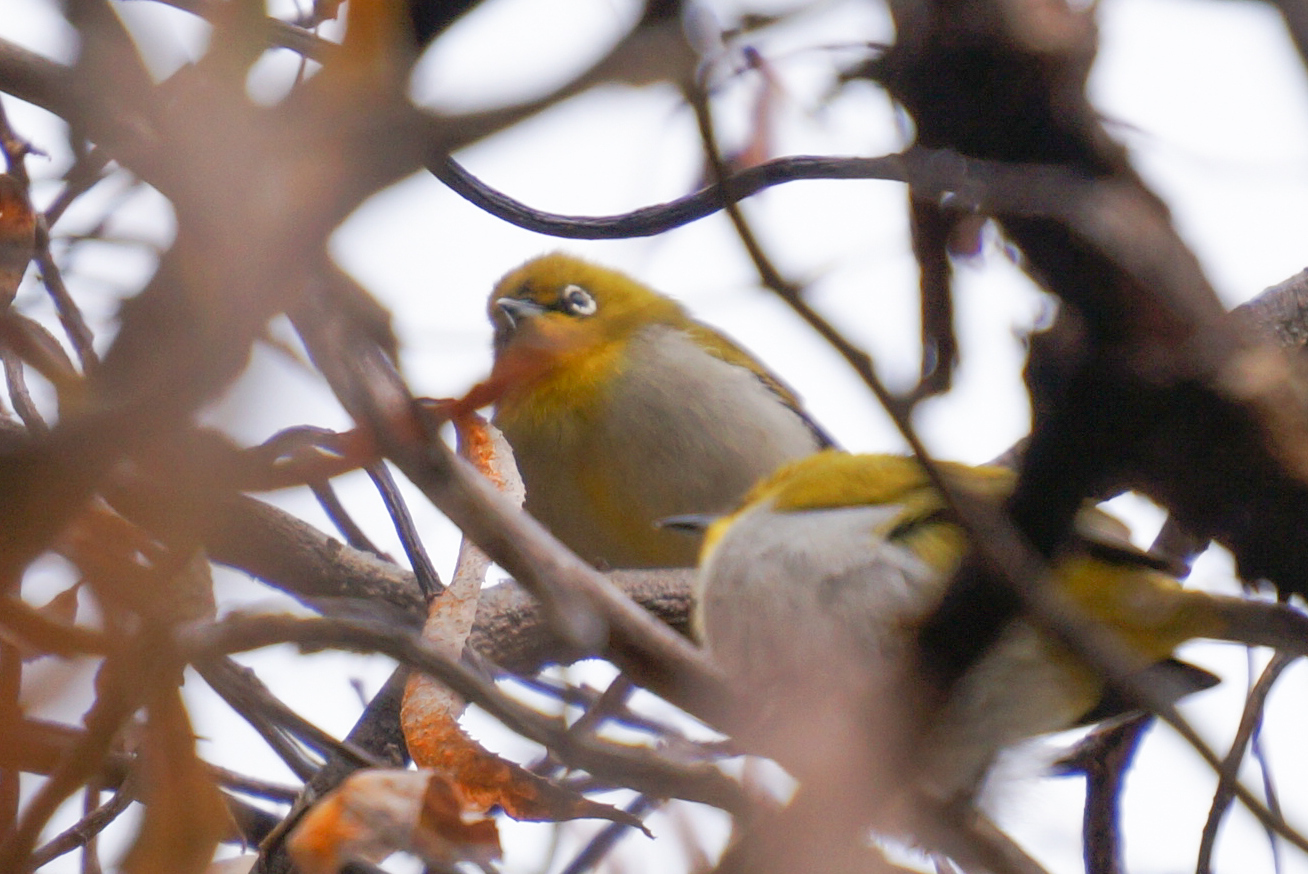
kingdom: Animalia
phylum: Chordata
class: Aves
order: Passeriformes
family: Zosteropidae
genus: Zosterops
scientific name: Zosterops palpebrosus
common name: Oriental white-eye
